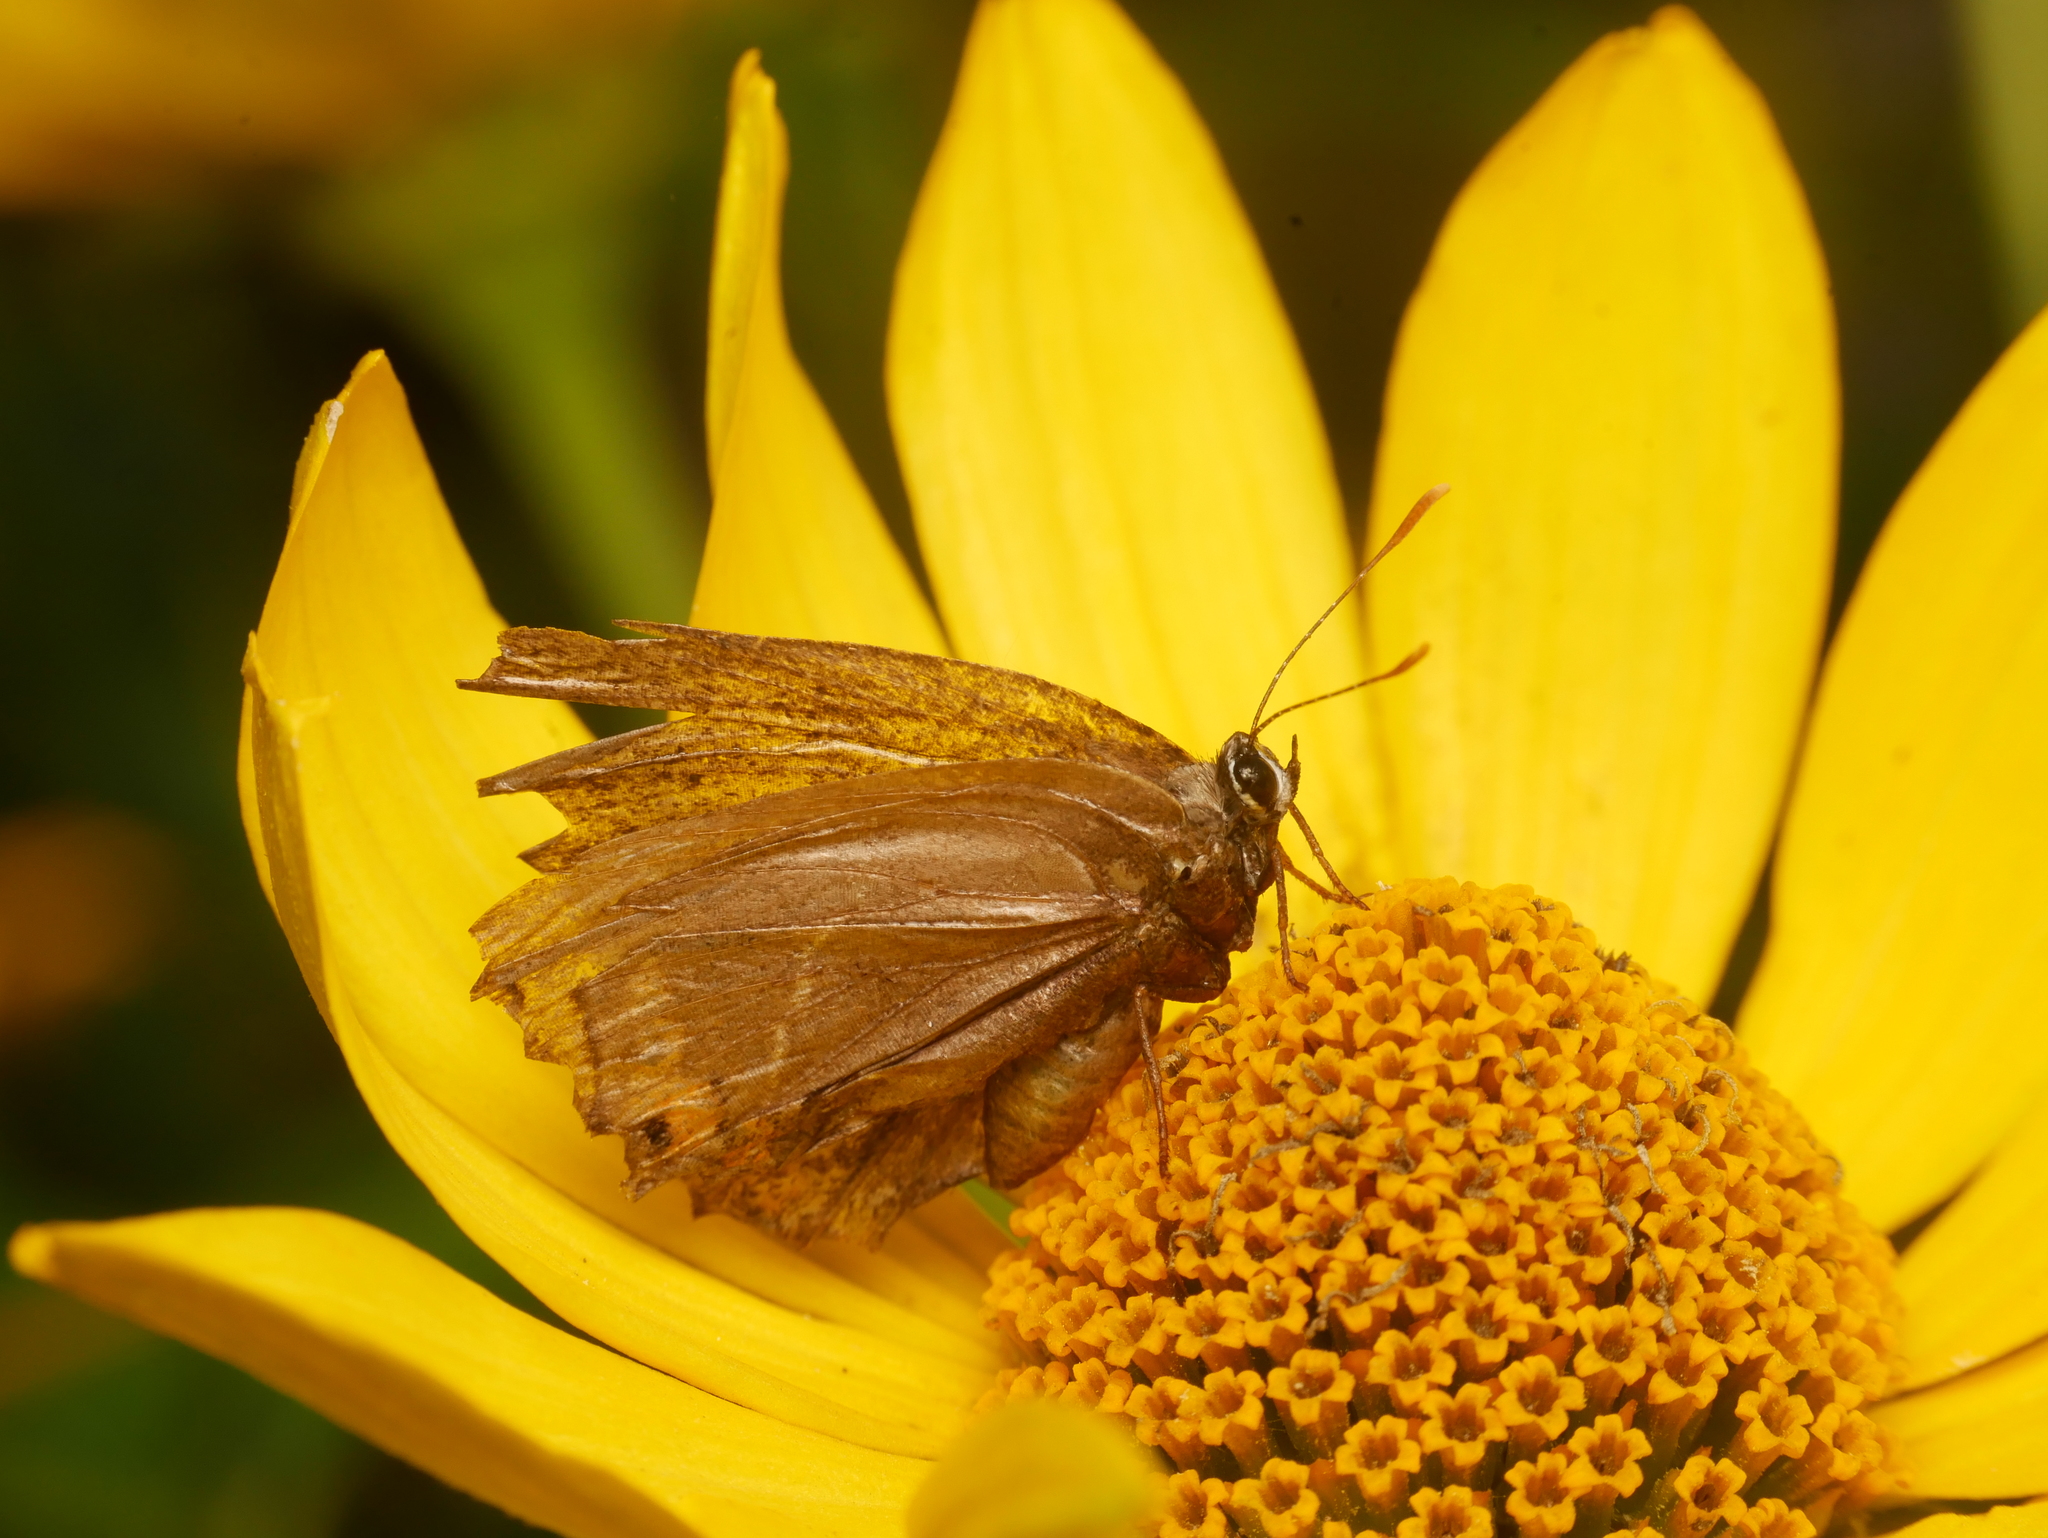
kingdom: Animalia
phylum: Arthropoda
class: Insecta
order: Lepidoptera
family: Lycaenidae
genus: Satyrium
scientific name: Satyrium w-album
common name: White-letter hairstreak
